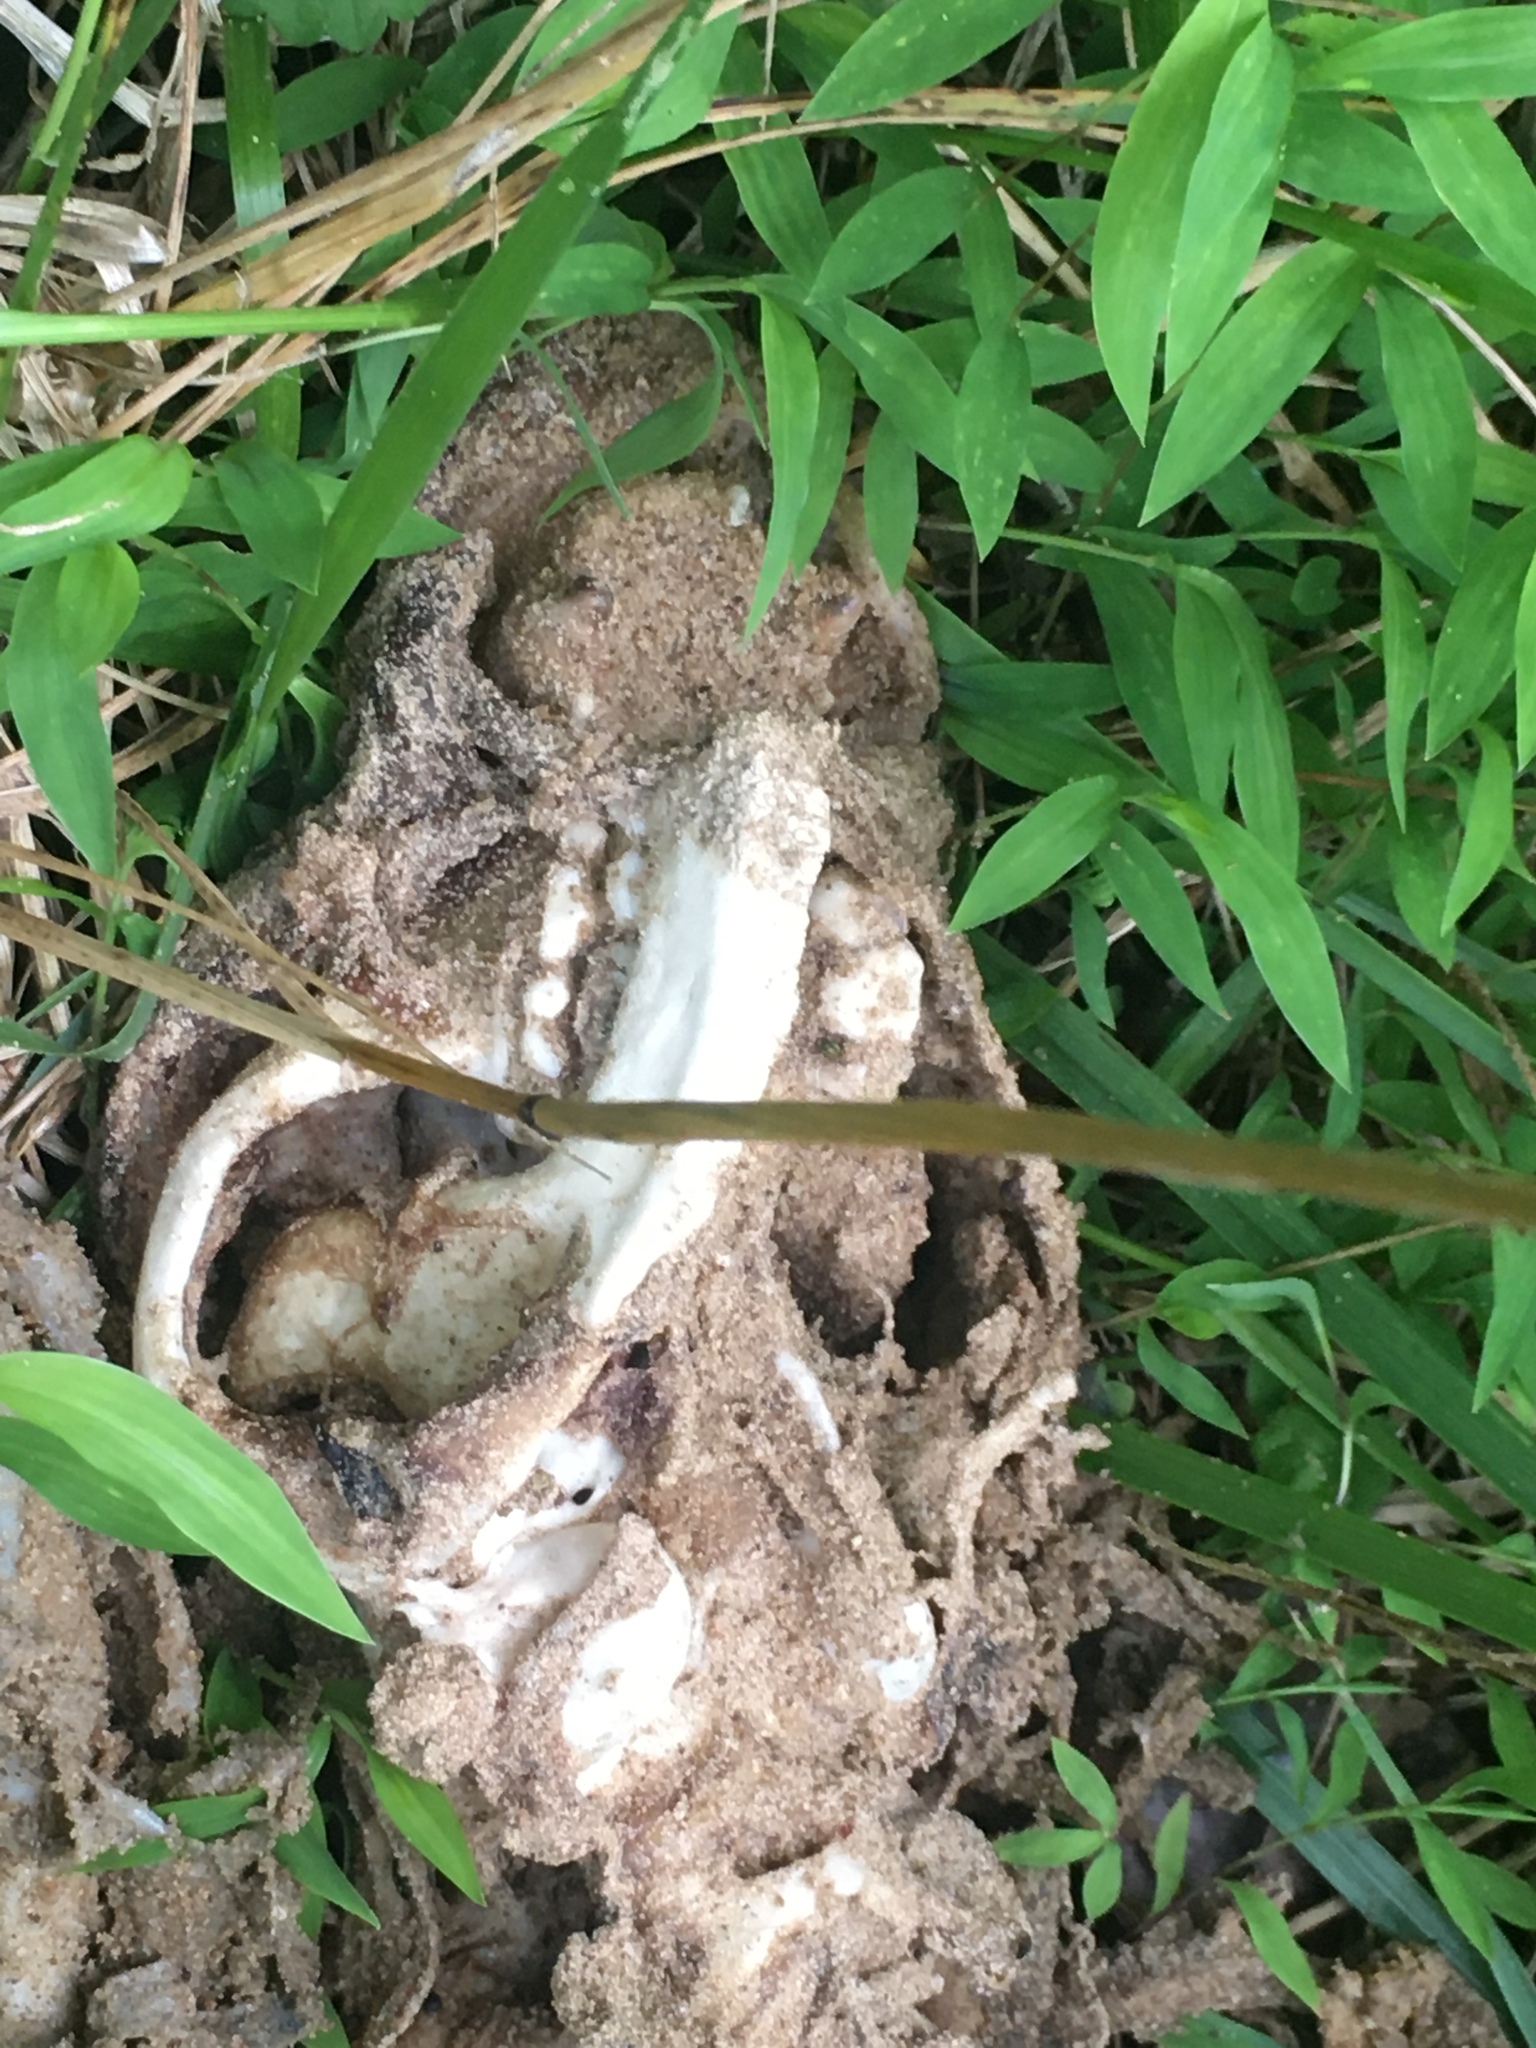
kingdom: Animalia
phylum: Chordata
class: Mammalia
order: Carnivora
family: Procyonidae
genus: Procyon
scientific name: Procyon lotor
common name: Raccoon
